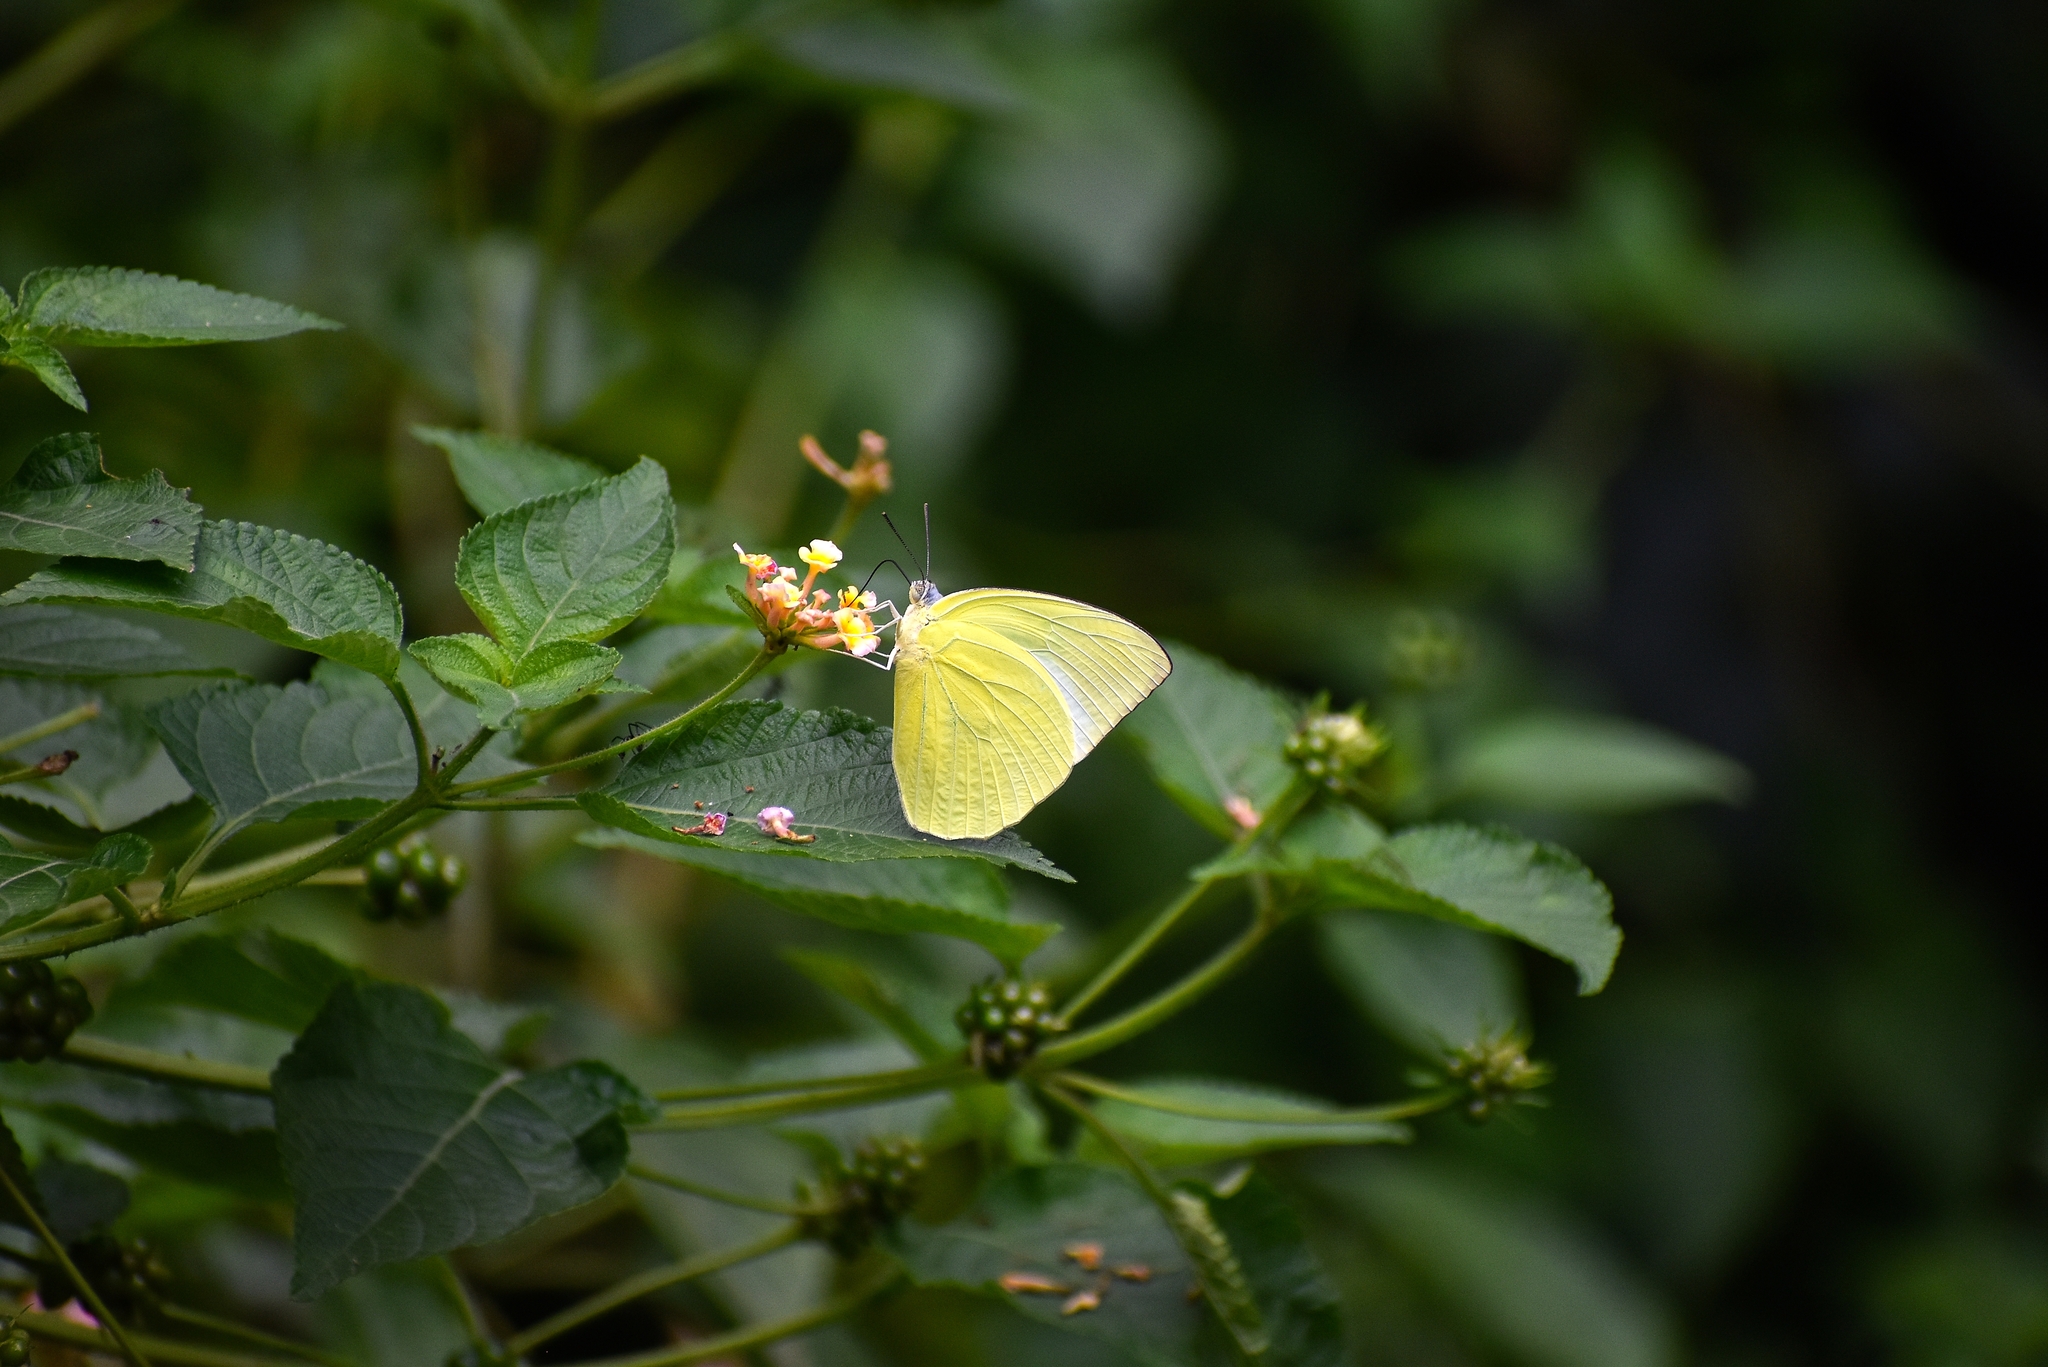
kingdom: Animalia
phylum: Arthropoda
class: Insecta
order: Lepidoptera
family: Pieridae
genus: Catopsilia
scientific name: Catopsilia pomona
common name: Common emigrant
